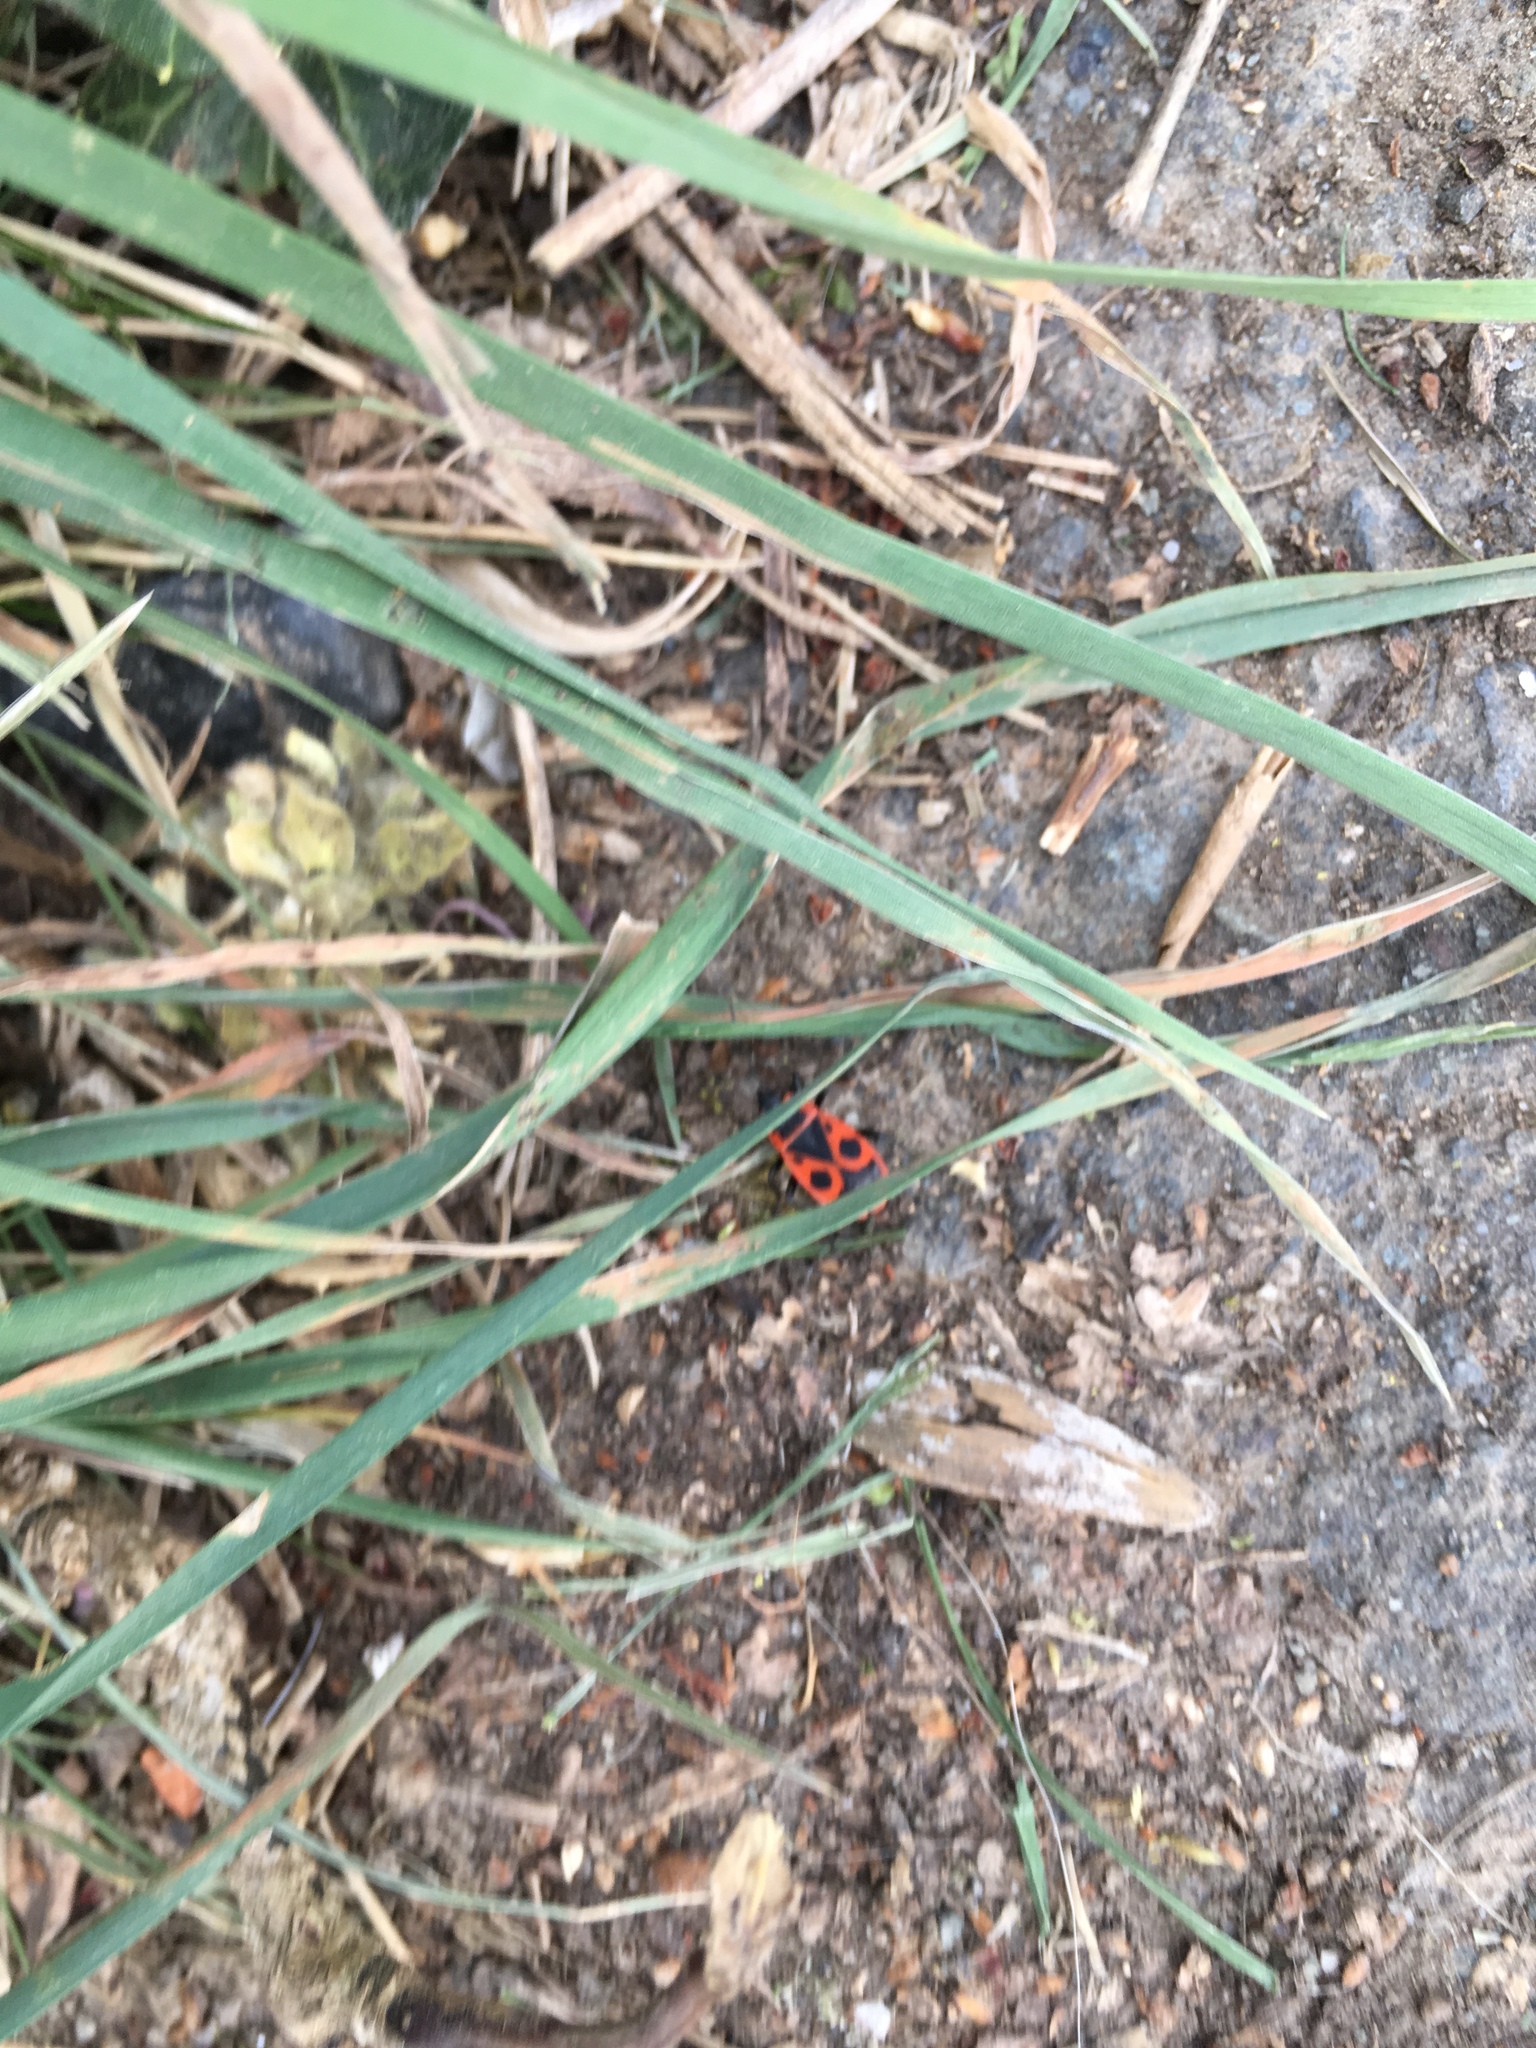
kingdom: Animalia
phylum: Arthropoda
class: Insecta
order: Hemiptera
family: Pyrrhocoridae
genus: Pyrrhocoris
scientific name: Pyrrhocoris apterus
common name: Firebug
